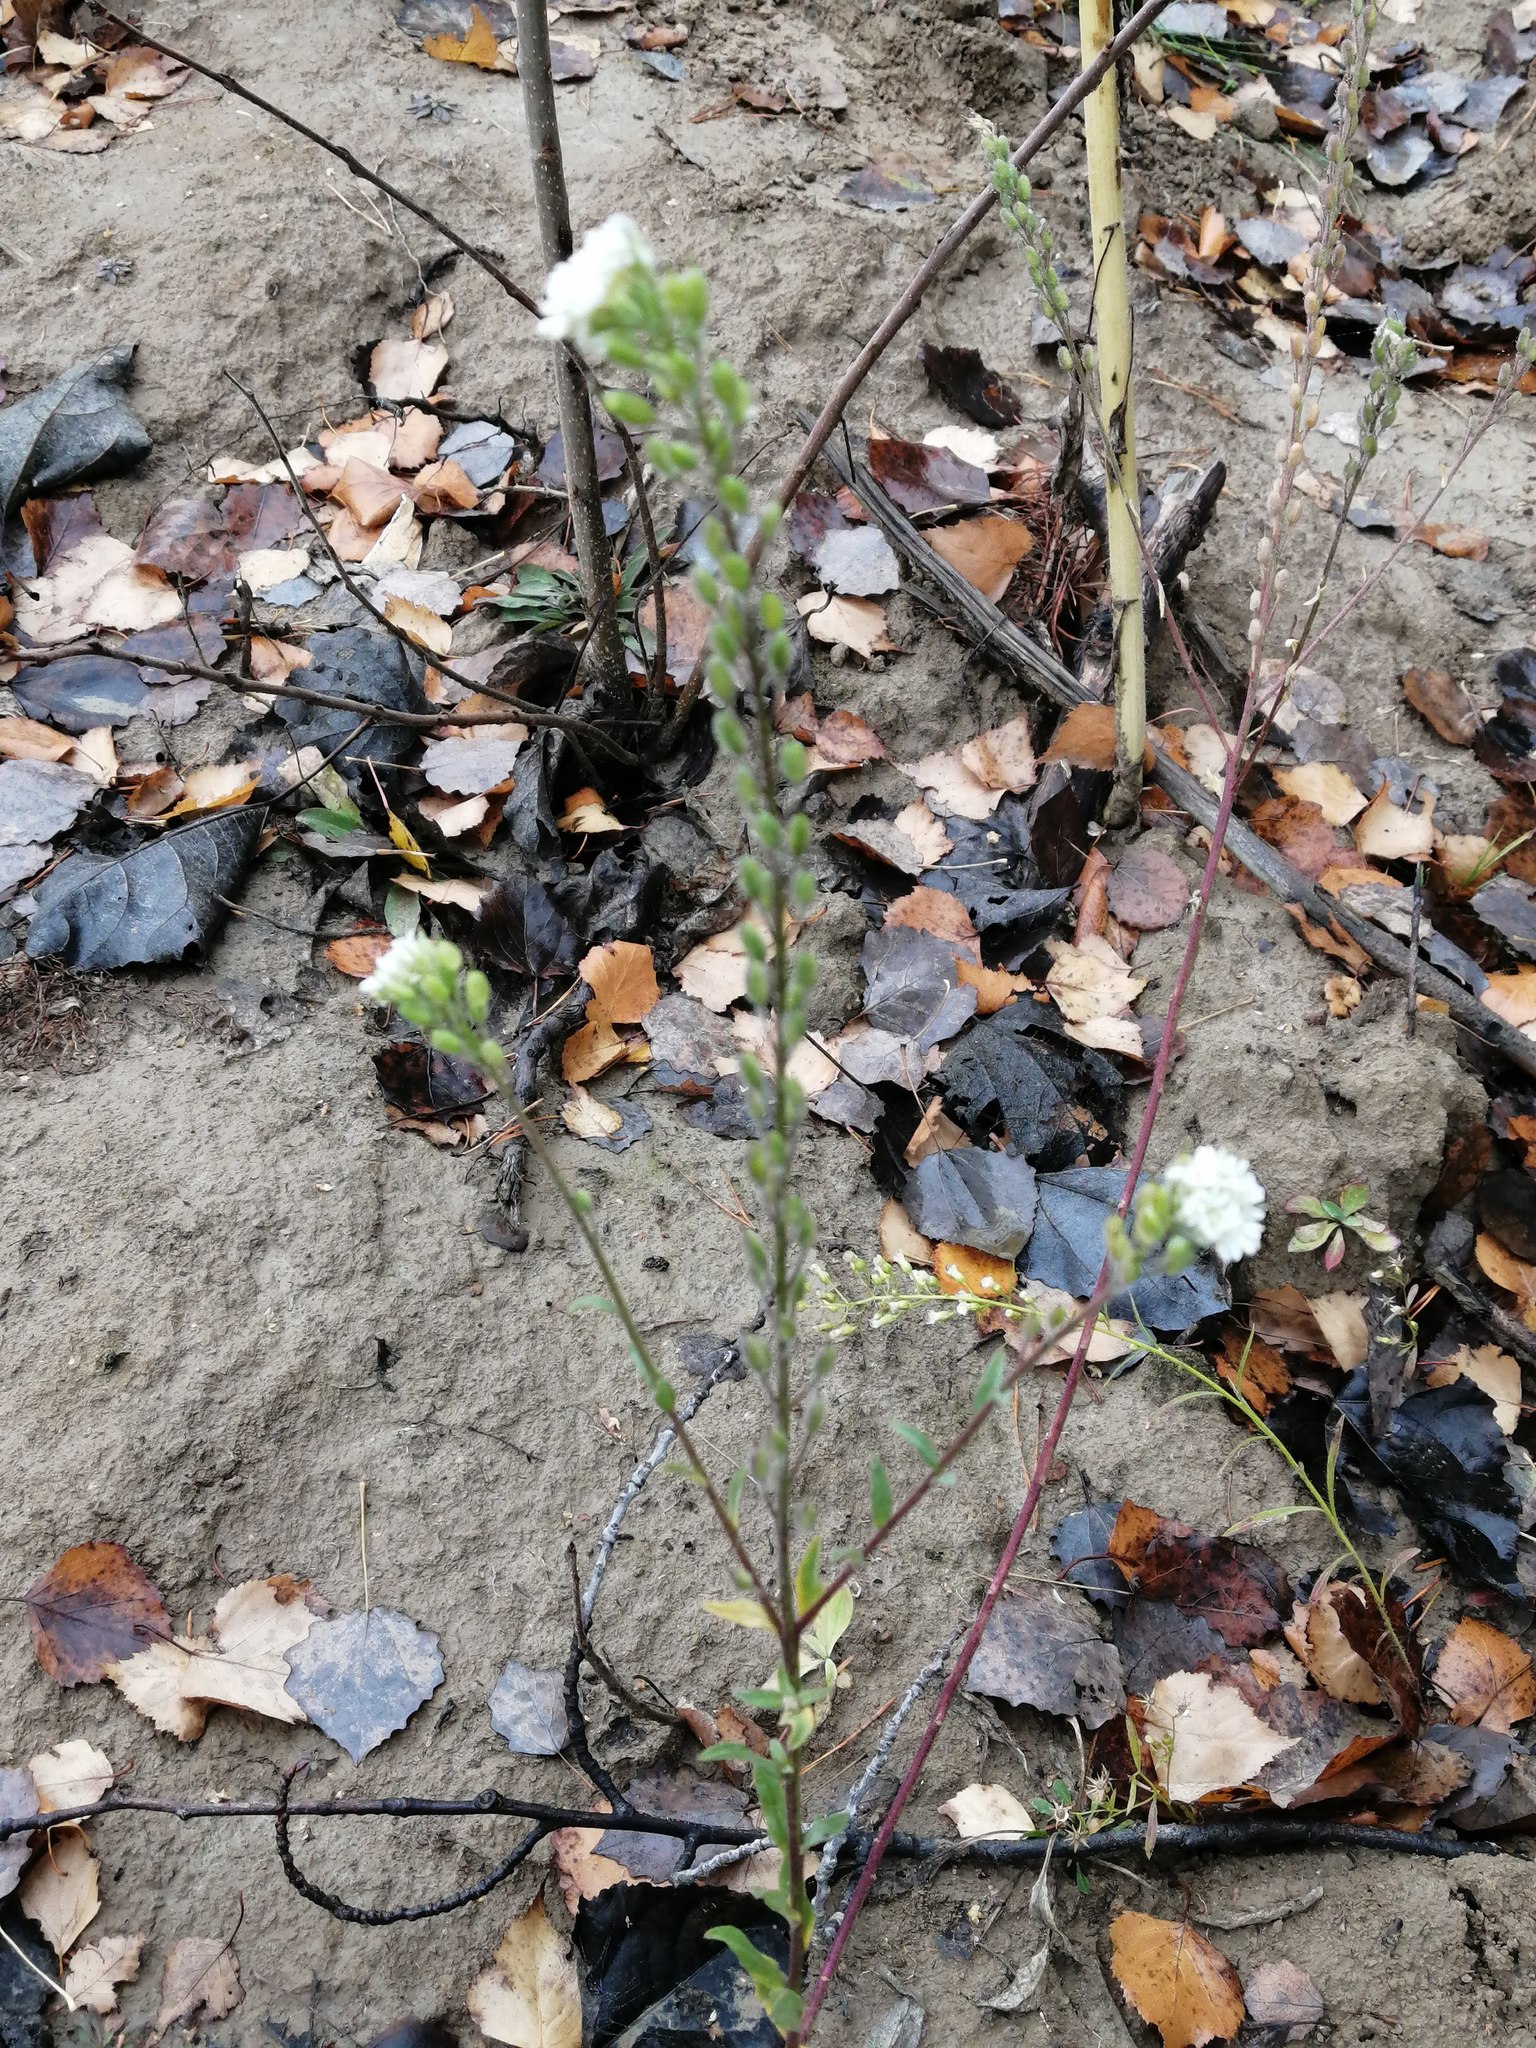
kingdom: Plantae
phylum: Tracheophyta
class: Magnoliopsida
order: Brassicales
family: Brassicaceae
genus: Berteroa
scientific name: Berteroa incana
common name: Hoary alison
